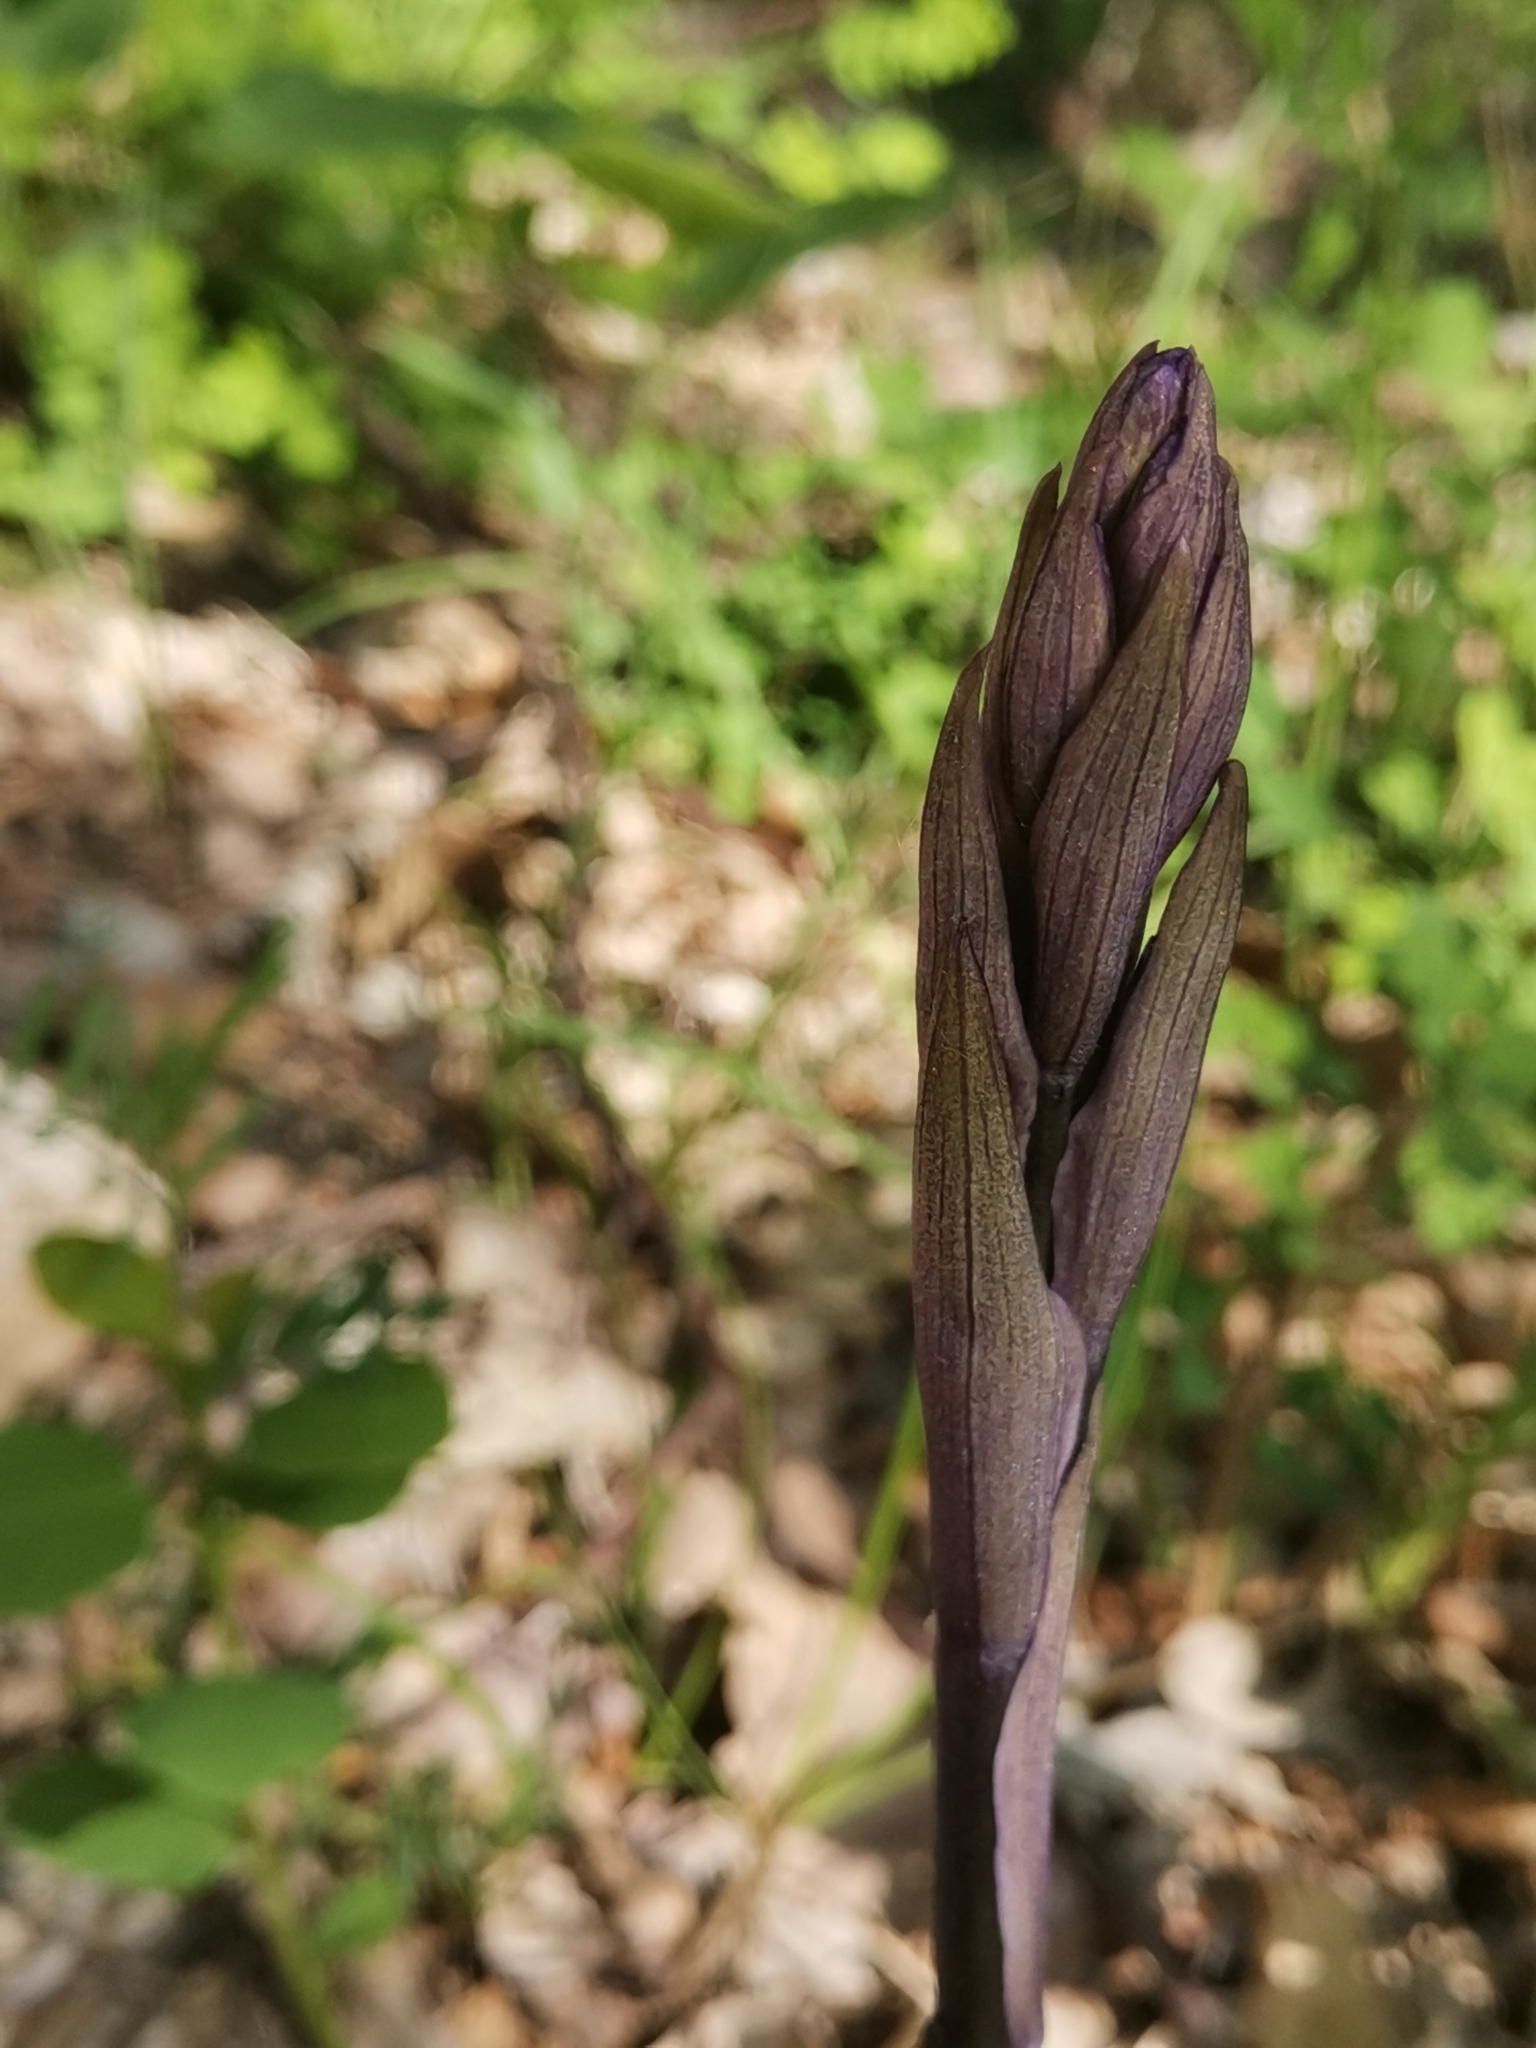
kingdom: Plantae
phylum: Tracheophyta
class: Liliopsida
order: Asparagales
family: Orchidaceae
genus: Limodorum
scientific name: Limodorum abortivum
